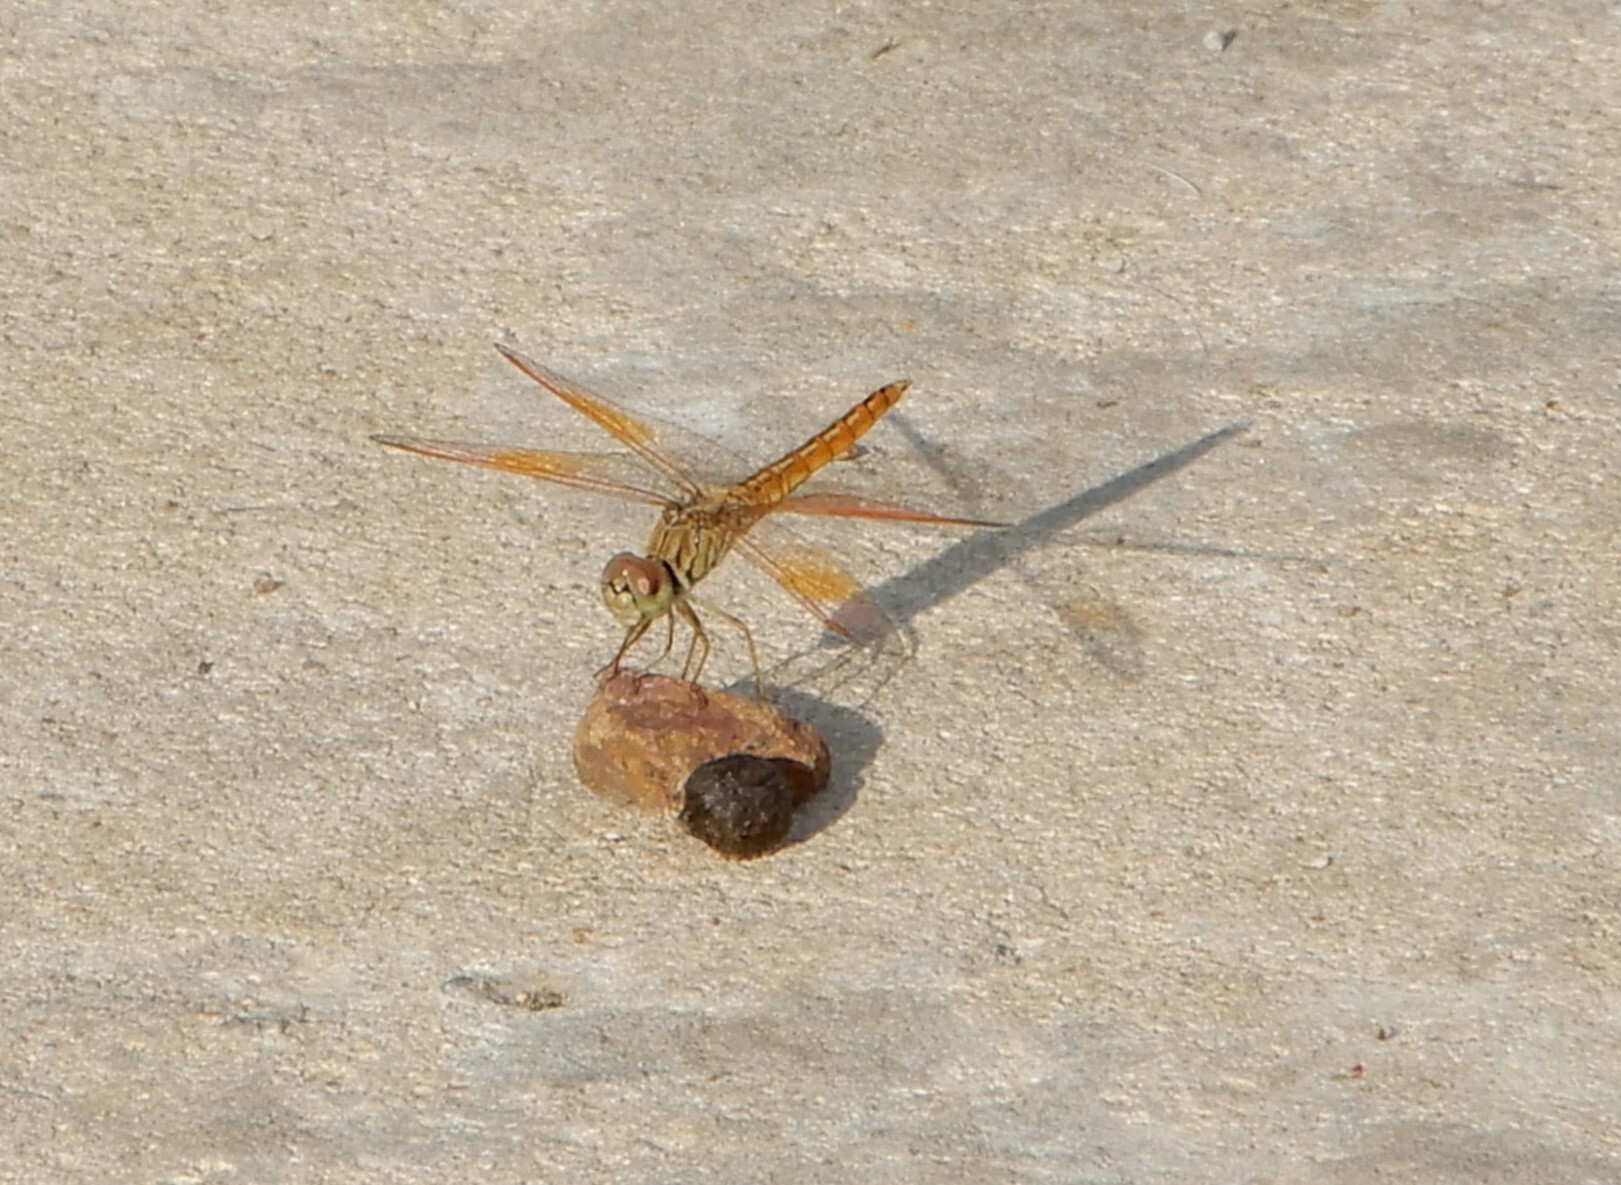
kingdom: Animalia
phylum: Arthropoda
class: Insecta
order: Odonata
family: Libellulidae
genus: Brachythemis
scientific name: Brachythemis contaminata
